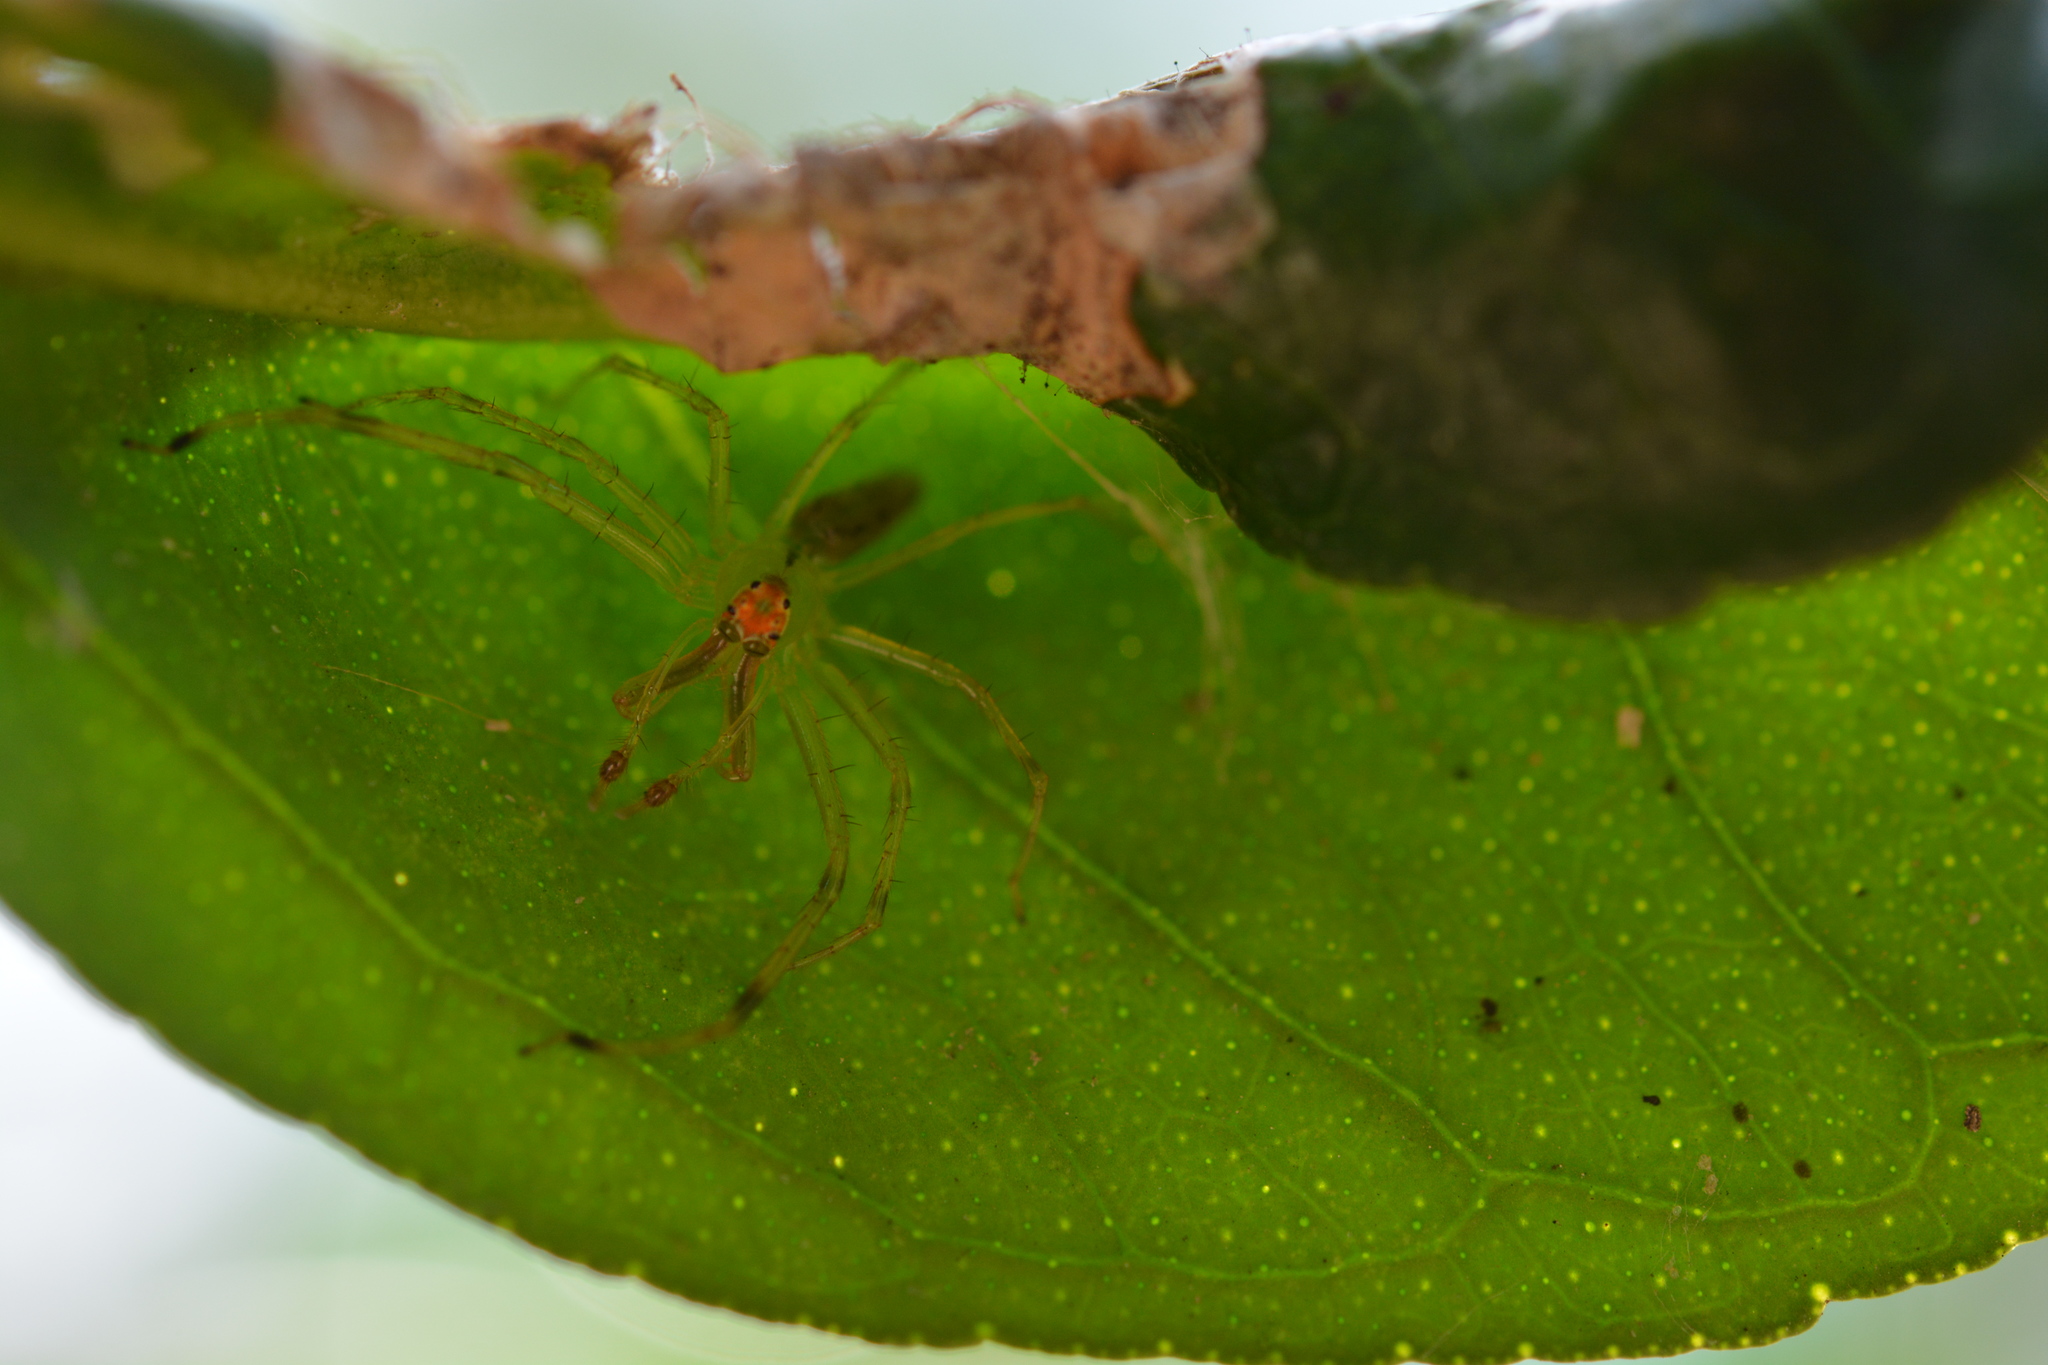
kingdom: Animalia
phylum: Arthropoda
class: Arachnida
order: Araneae
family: Salticidae
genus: Lyssomanes
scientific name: Lyssomanes viridis
